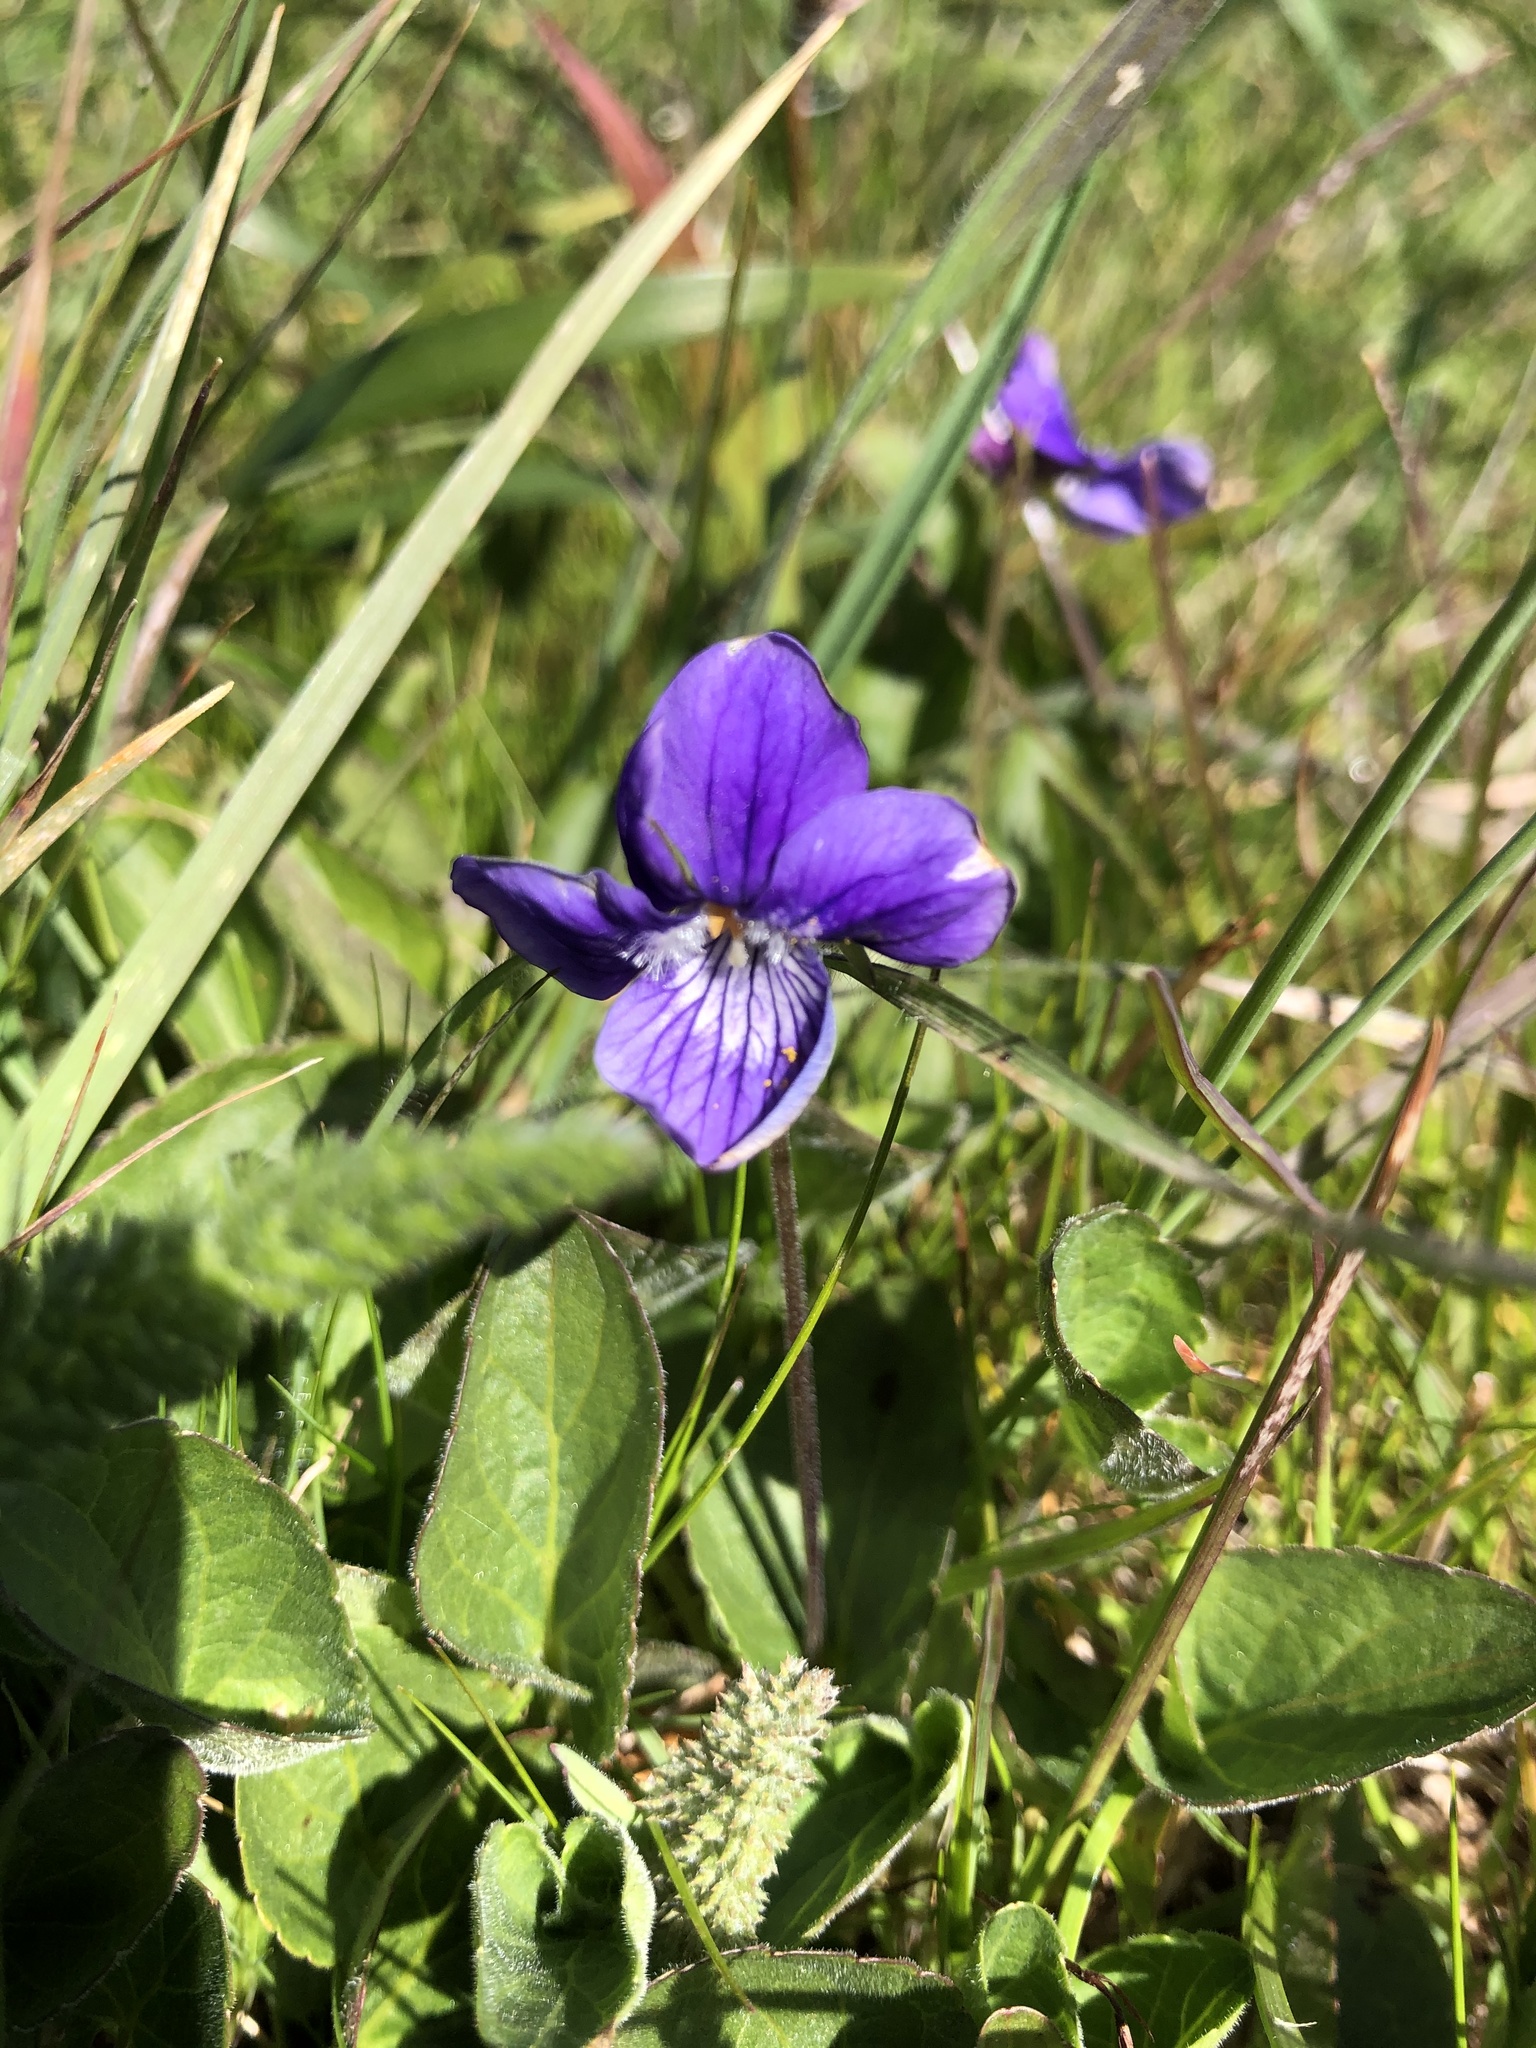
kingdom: Plantae
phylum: Tracheophyta
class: Magnoliopsida
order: Malpighiales
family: Violaceae
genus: Viola
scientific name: Viola adunca
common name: Sand violet
